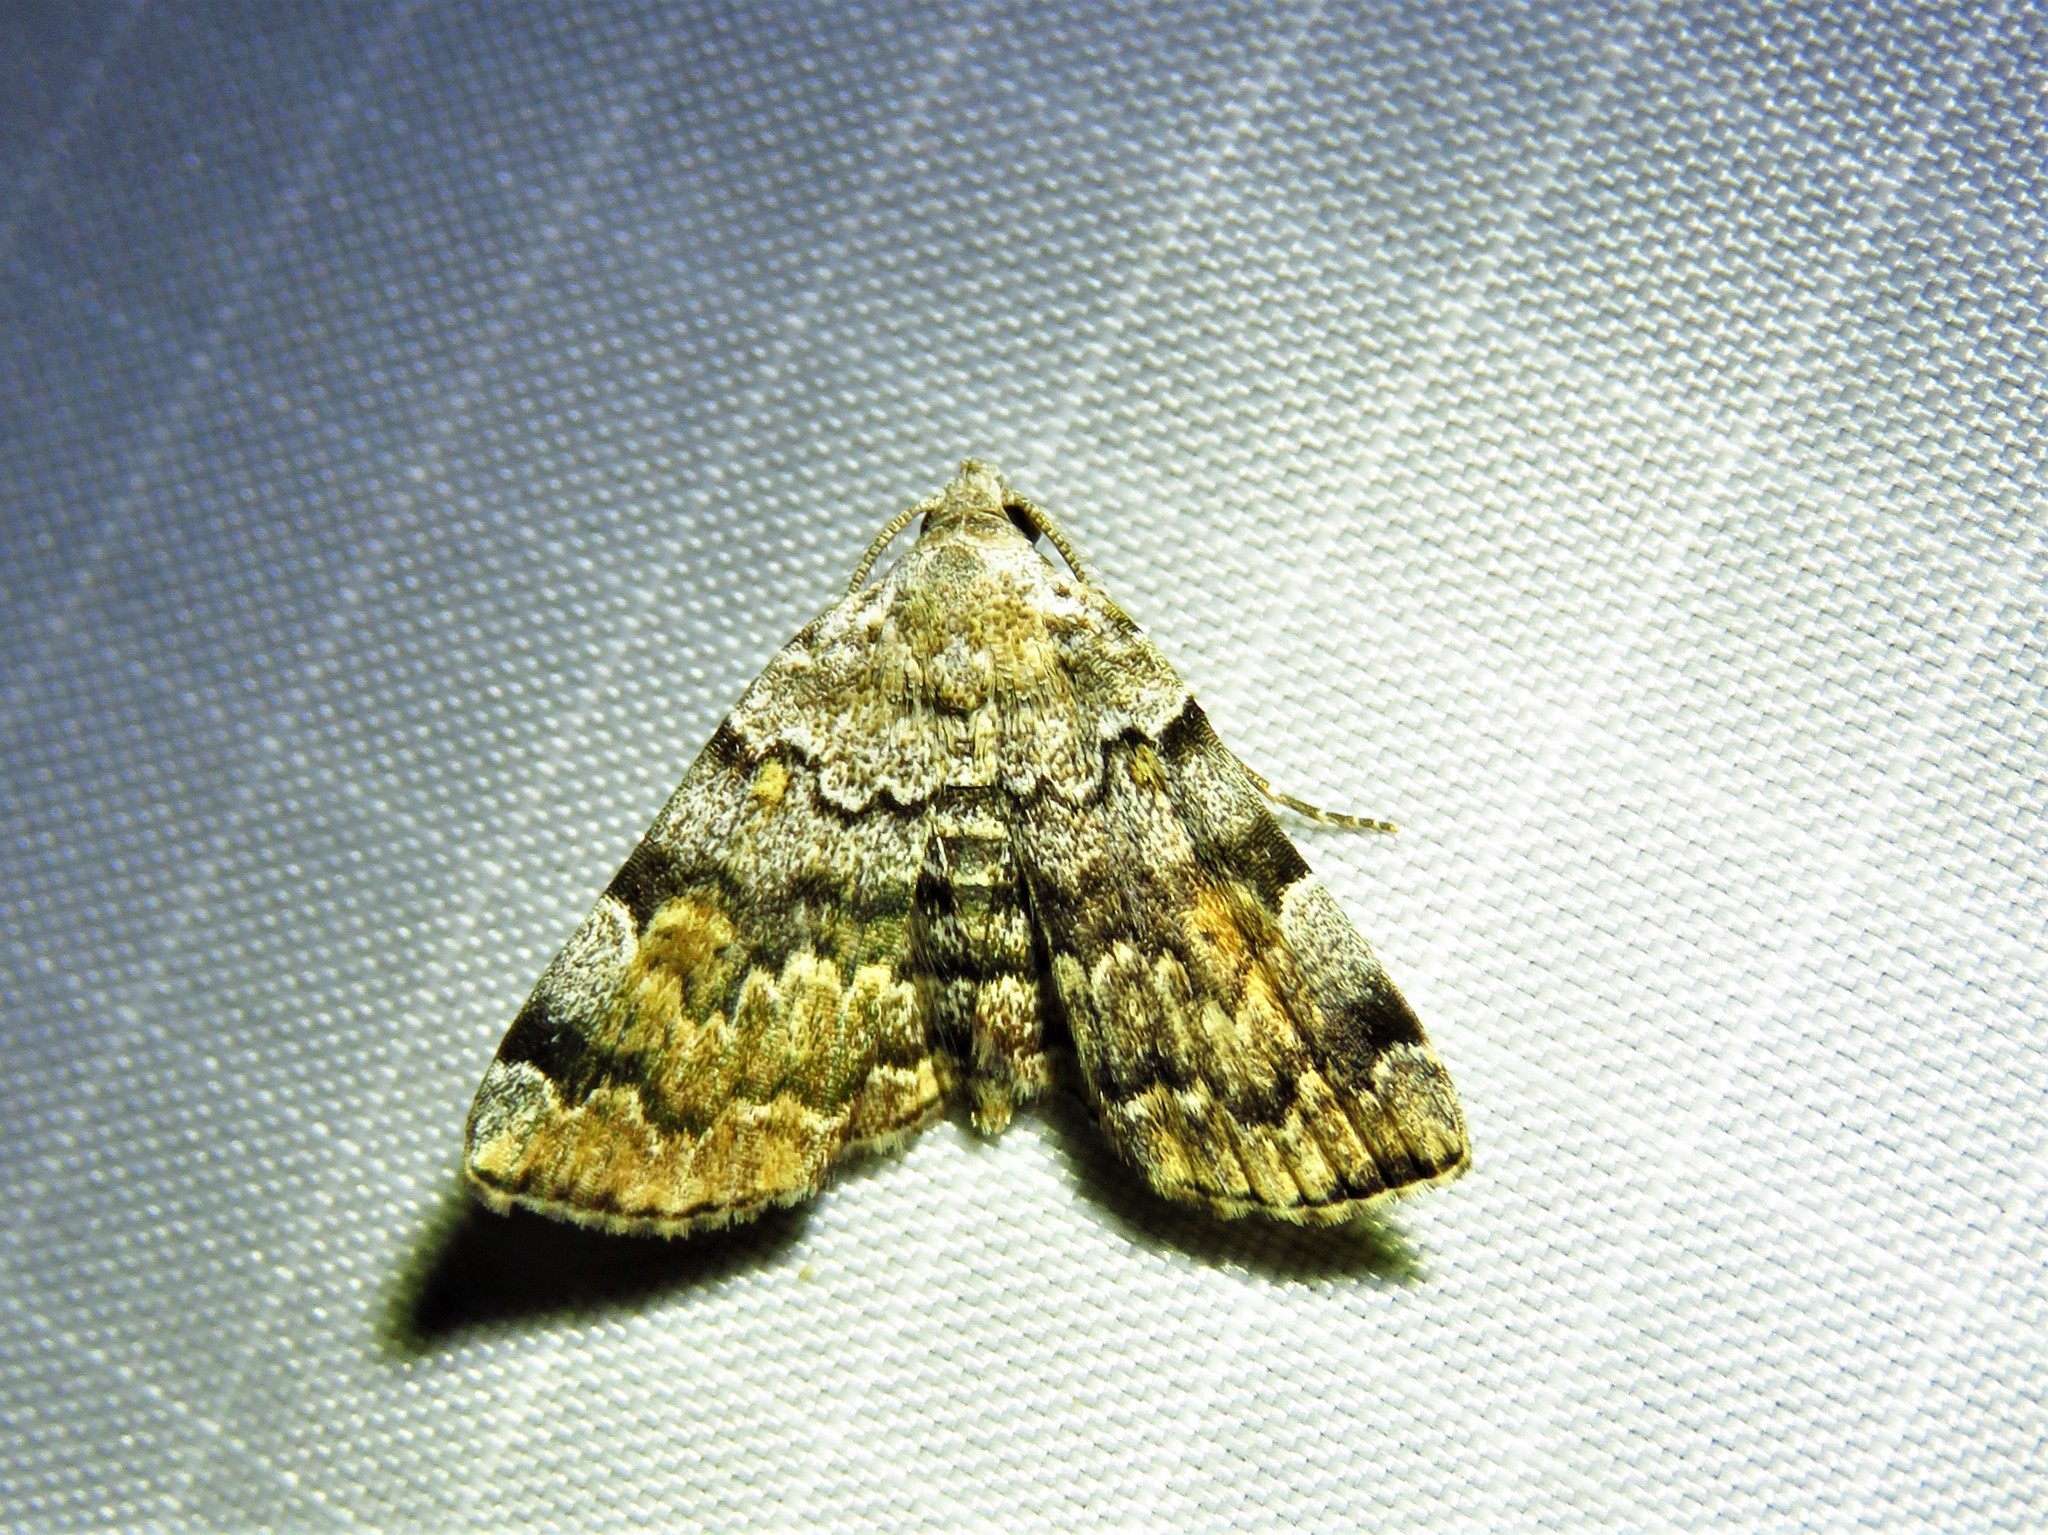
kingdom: Animalia
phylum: Arthropoda
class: Insecta
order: Lepidoptera
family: Erebidae
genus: Idia
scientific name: Idia americalis
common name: American idia moth
